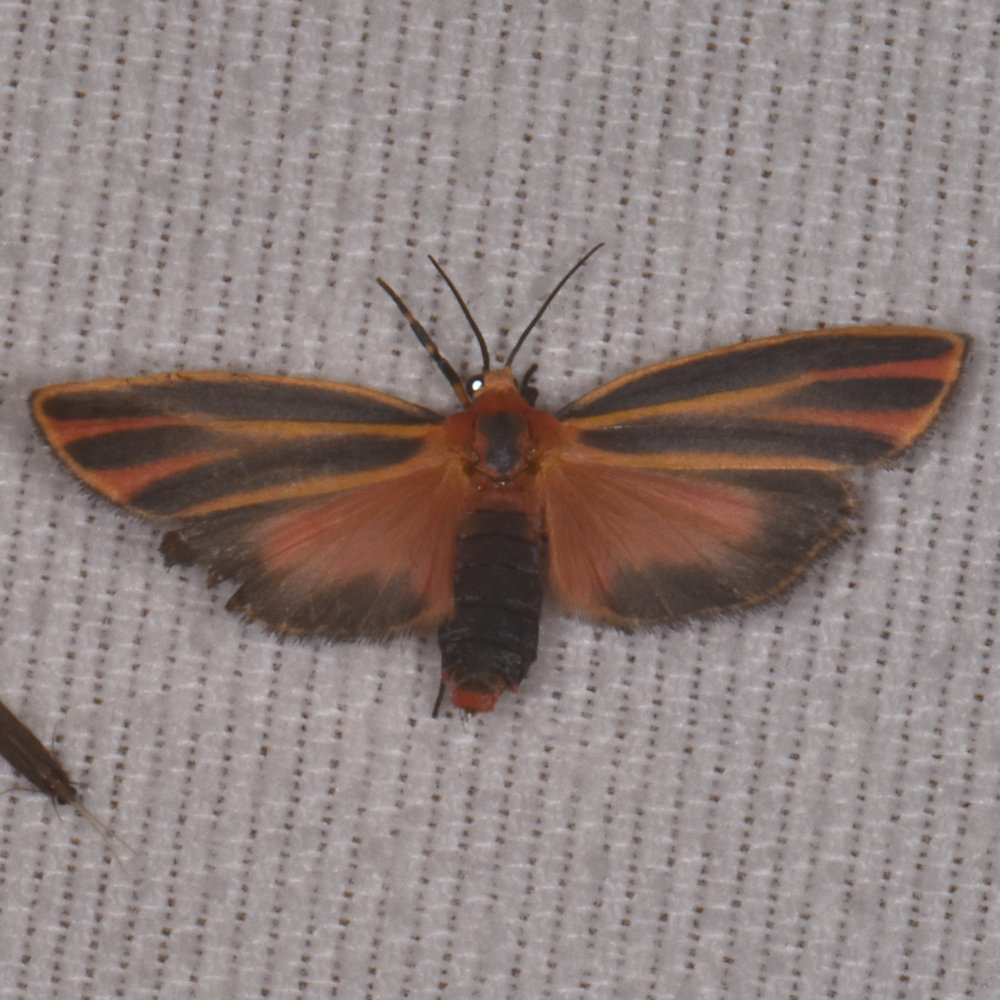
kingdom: Animalia
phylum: Arthropoda
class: Insecta
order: Lepidoptera
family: Erebidae
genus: Hypoprepia
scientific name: Hypoprepia fucosa
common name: Painted lichen moth
